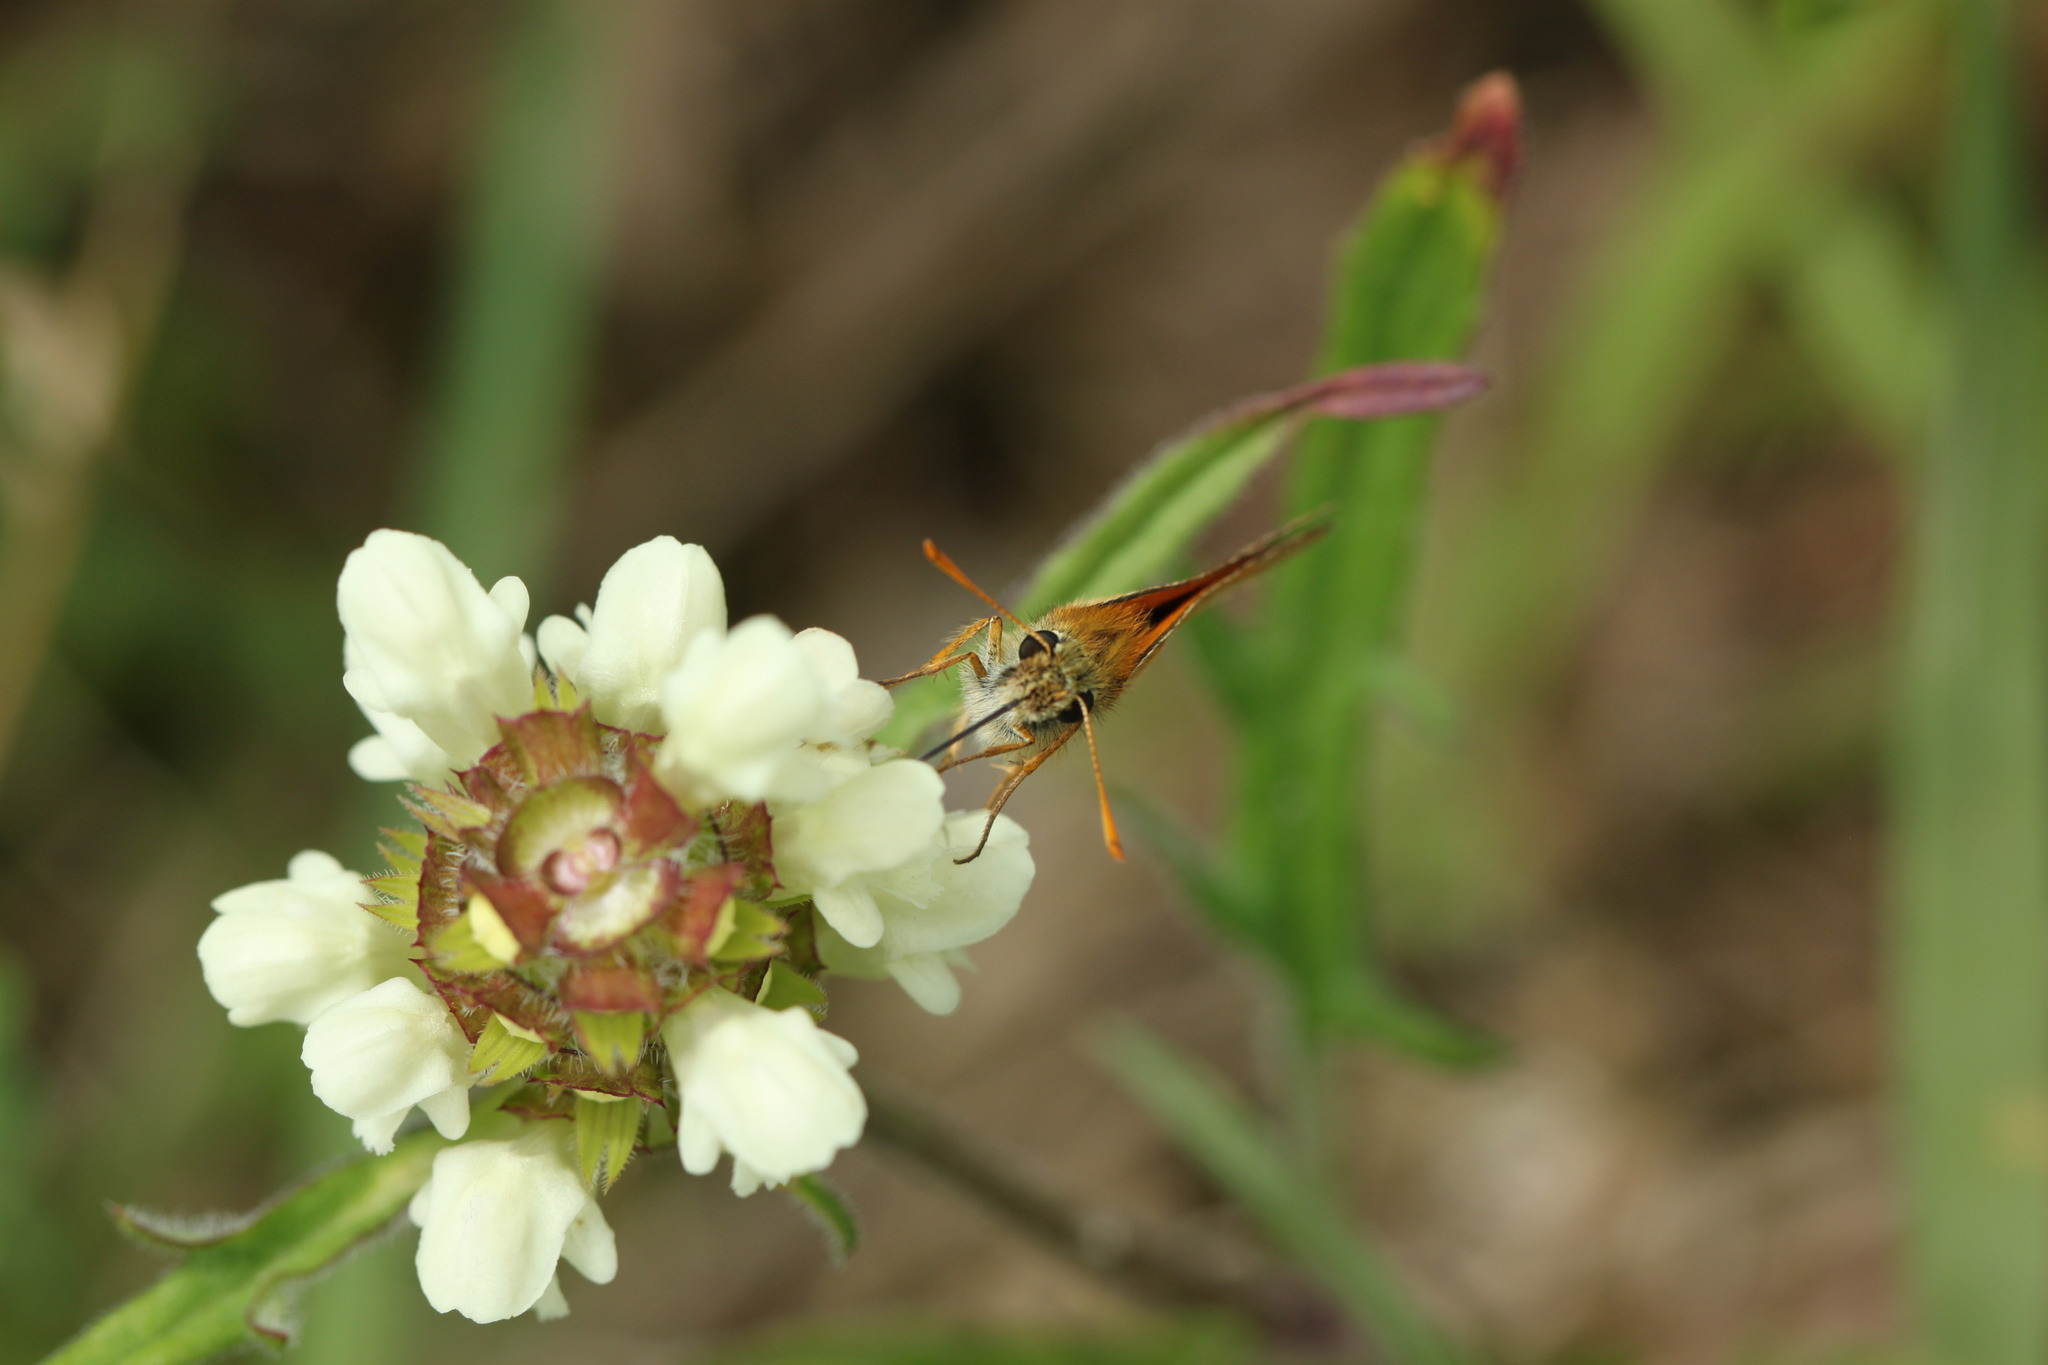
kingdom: Plantae
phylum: Tracheophyta
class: Magnoliopsida
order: Lamiales
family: Lamiaceae
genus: Prunella
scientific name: Prunella laciniata
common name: Cut-leaved selfheal
